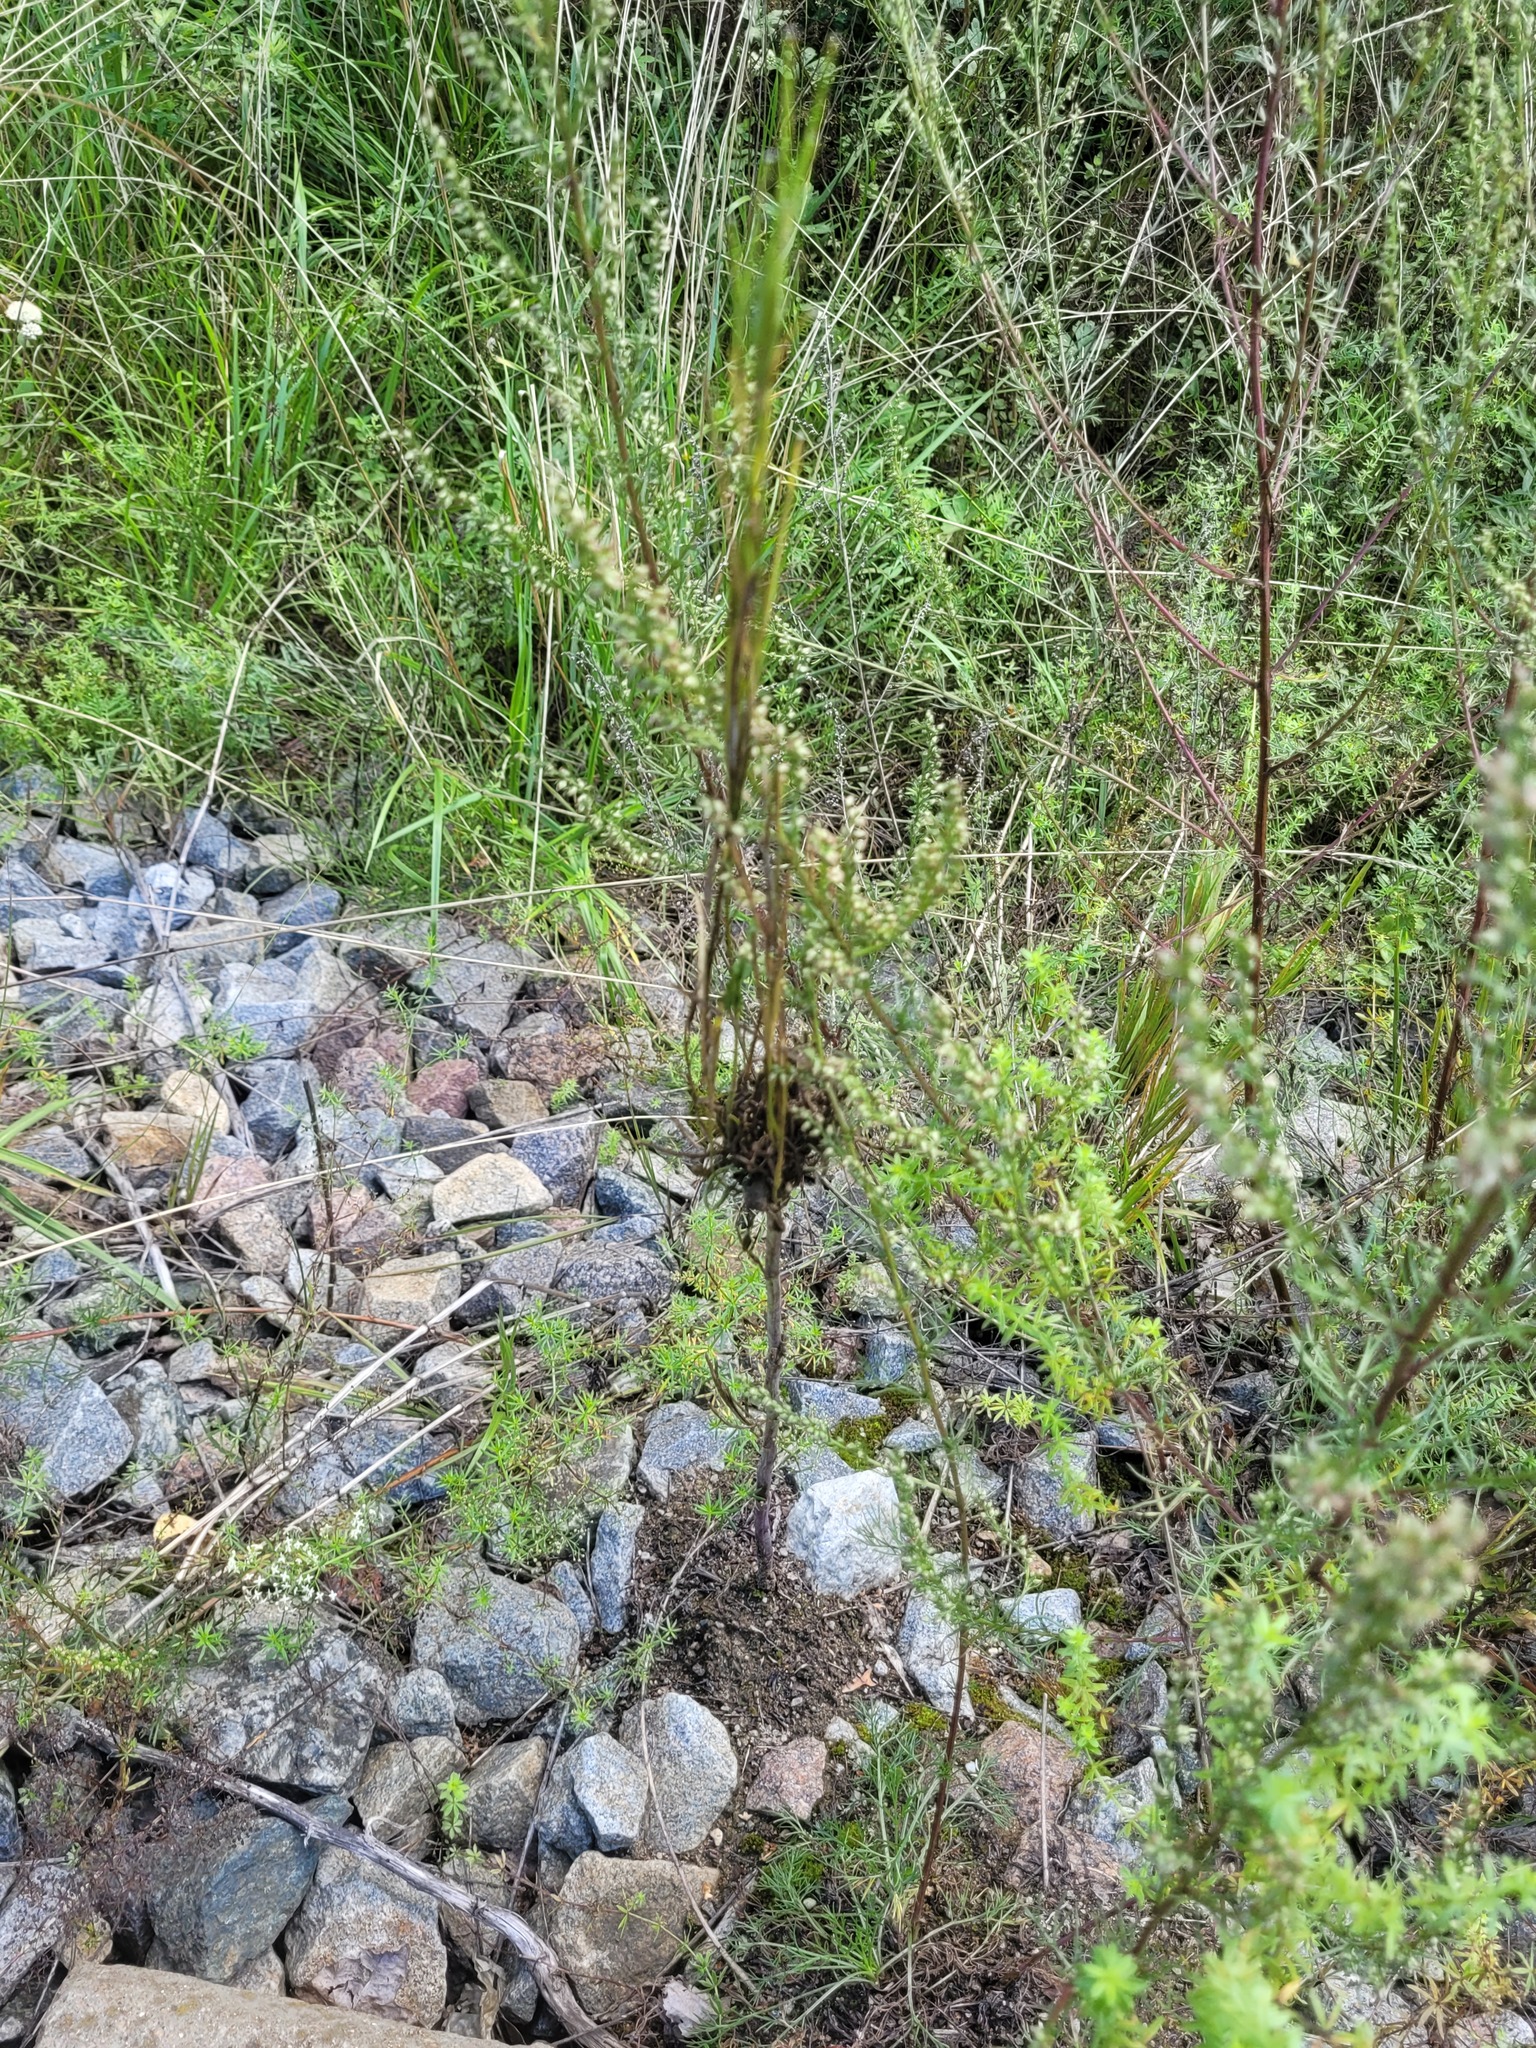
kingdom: Plantae
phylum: Tracheophyta
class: Magnoliopsida
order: Brassicales
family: Brassicaceae
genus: Turritis
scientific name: Turritis glabra
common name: Tower rockcress
